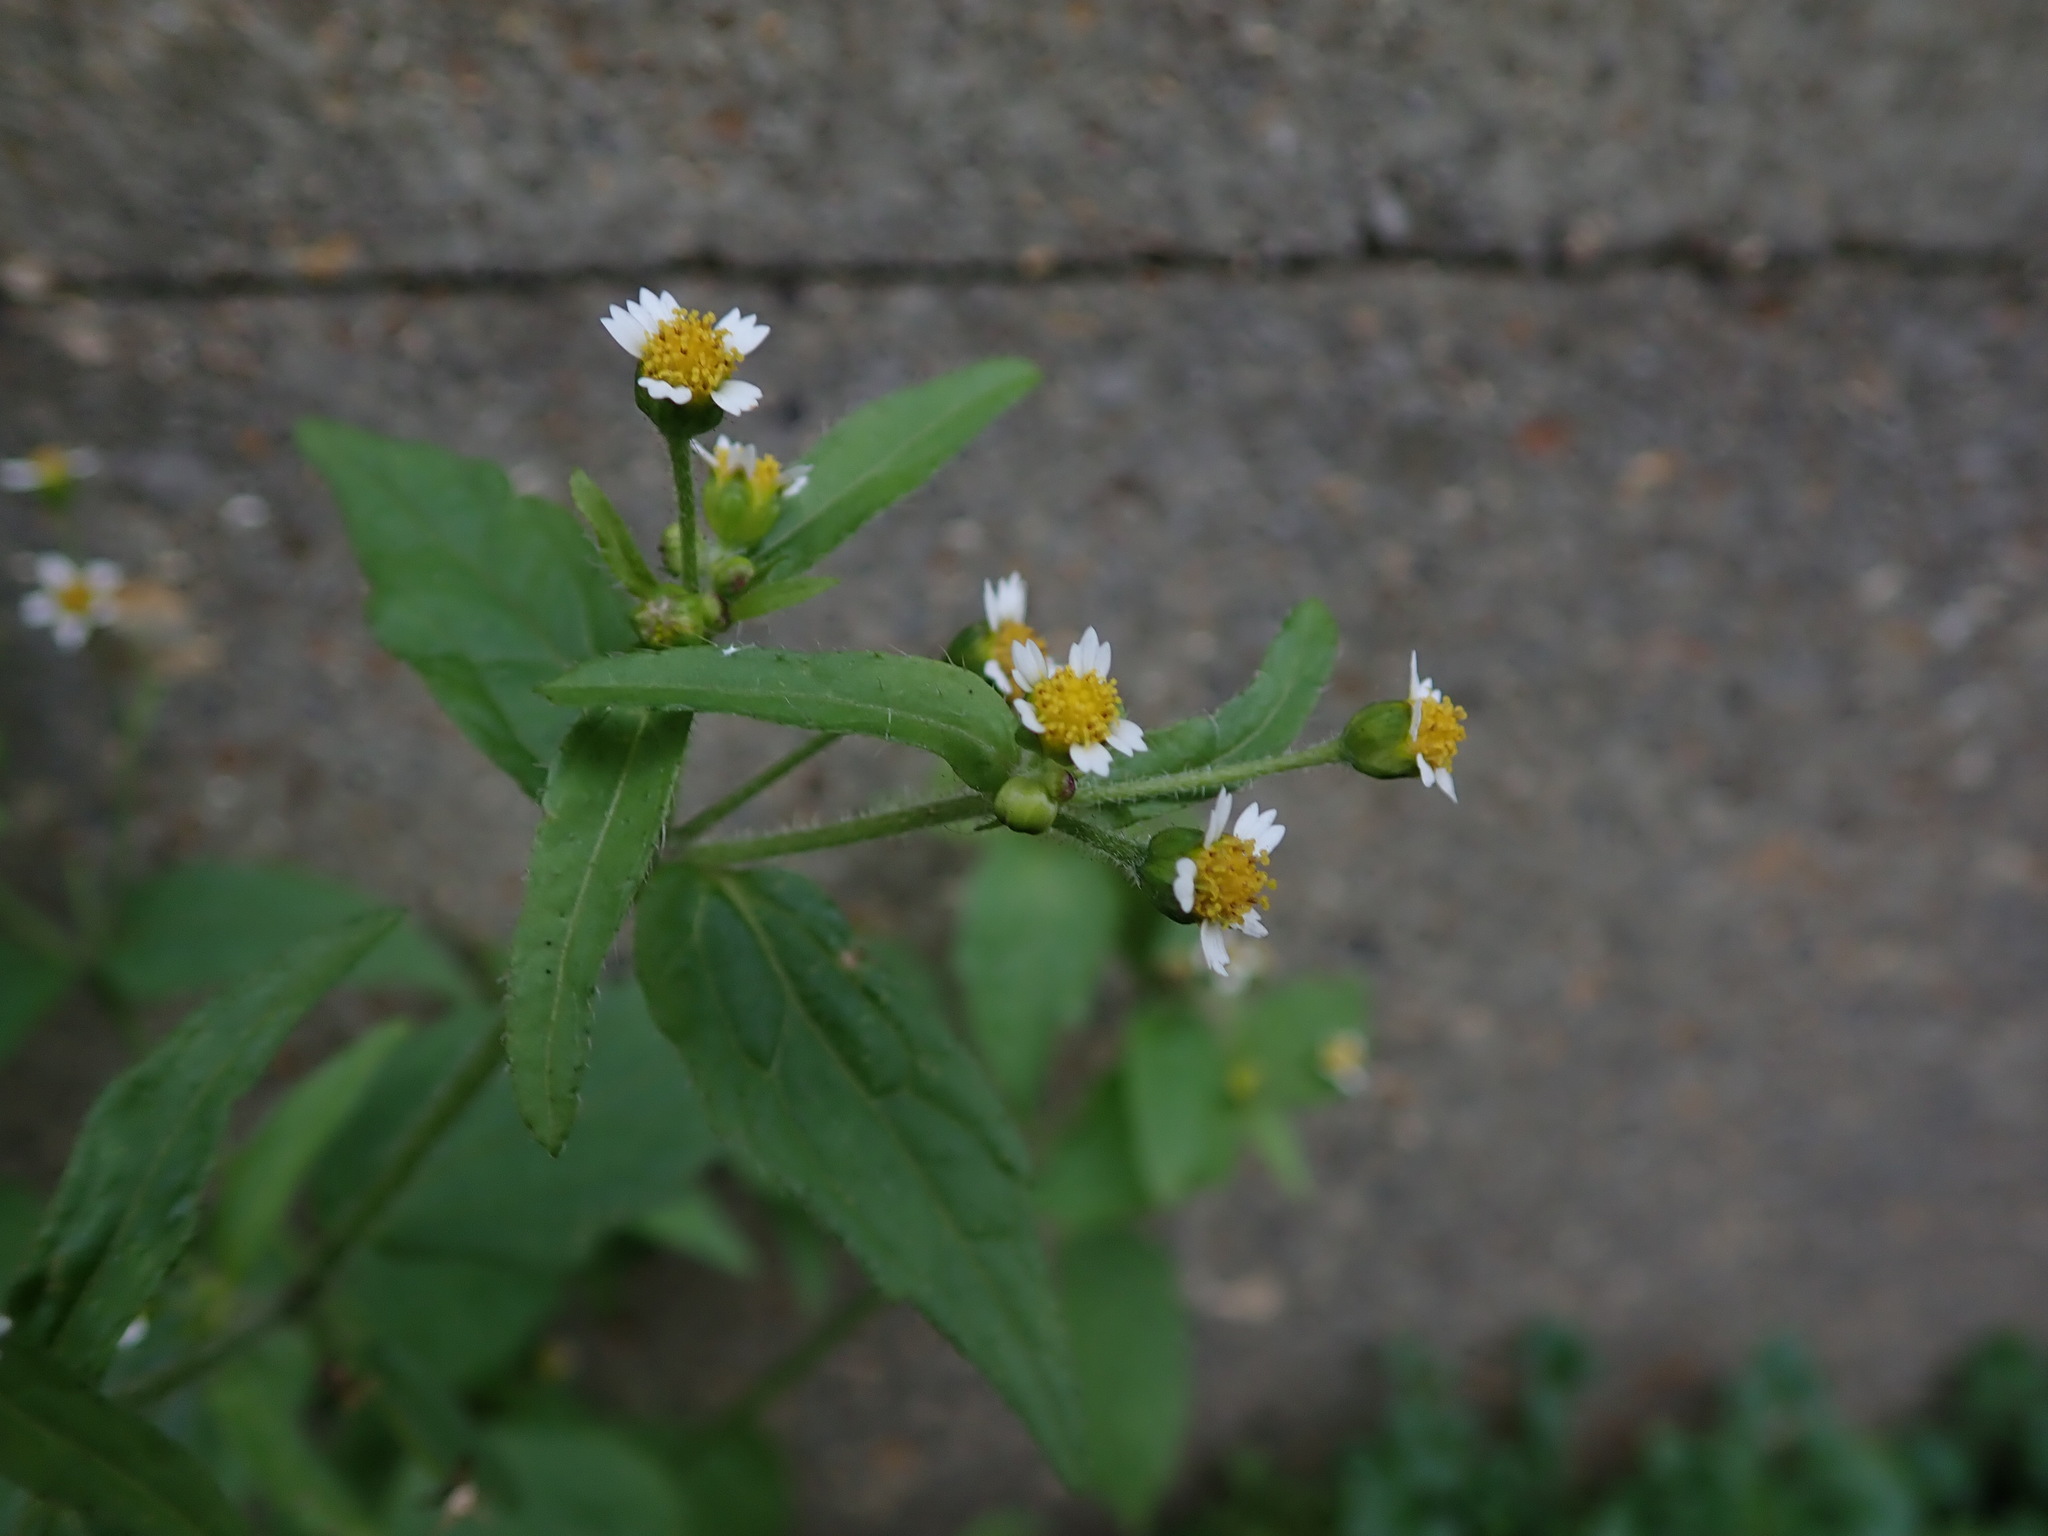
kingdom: Plantae
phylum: Tracheophyta
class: Magnoliopsida
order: Asterales
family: Asteraceae
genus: Galinsoga
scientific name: Galinsoga quadriradiata
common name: Shaggy soldier
